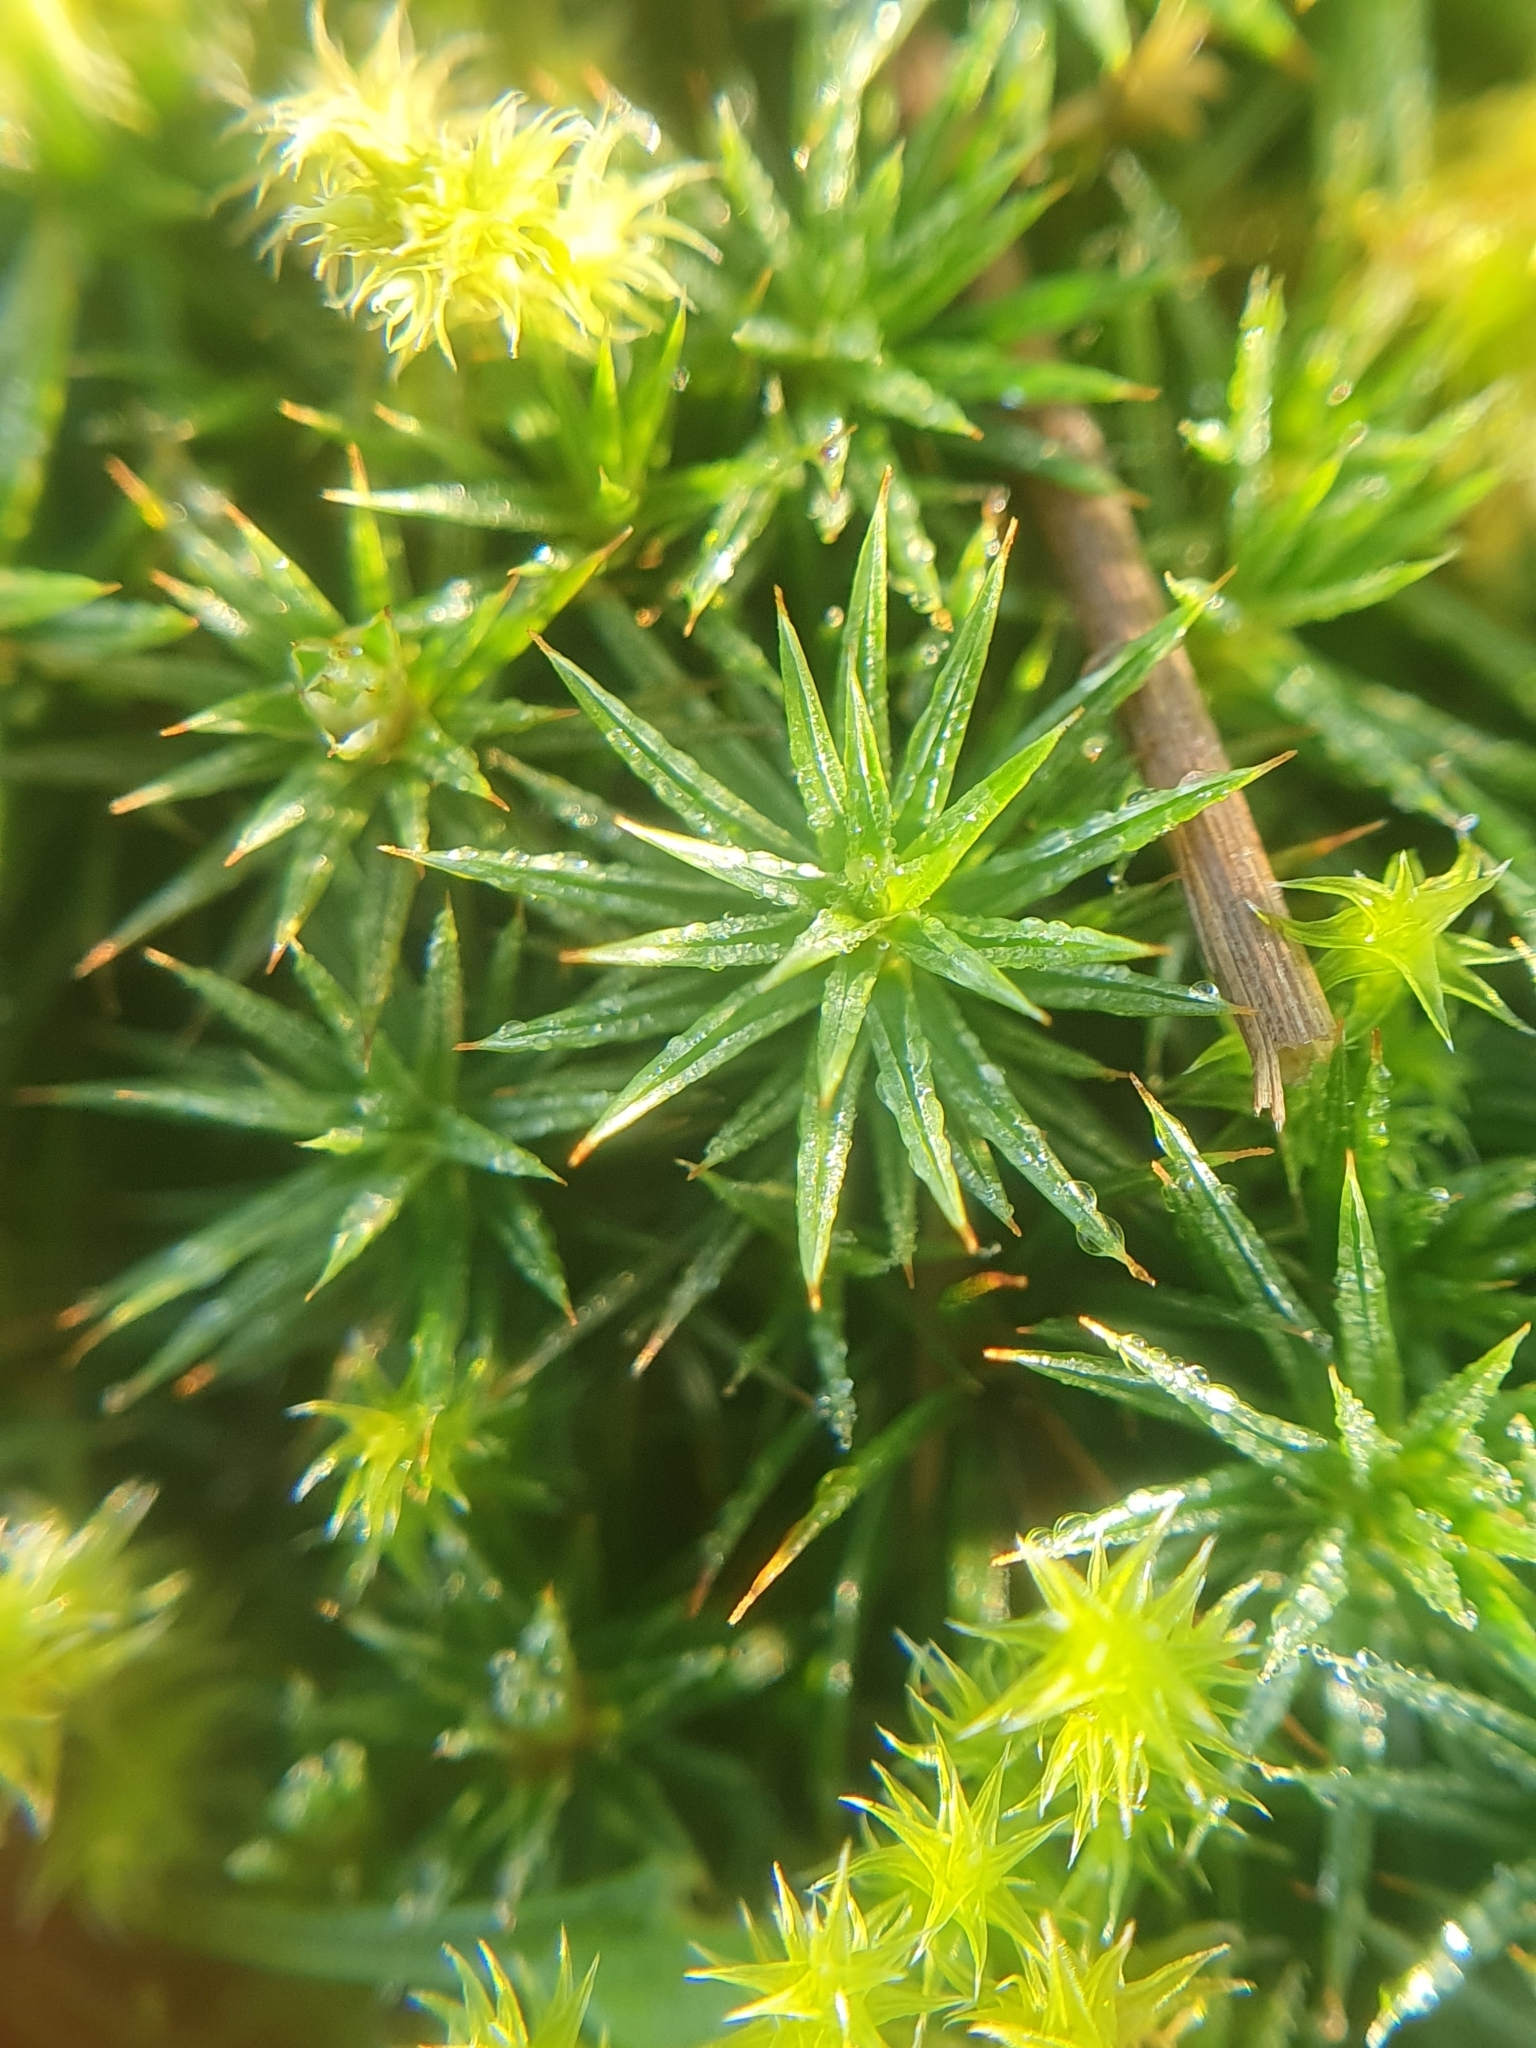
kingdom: Plantae
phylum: Bryophyta
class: Polytrichopsida
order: Polytrichales
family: Polytrichaceae
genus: Polytrichum
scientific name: Polytrichum juniperinum
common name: Juniper haircap moss
